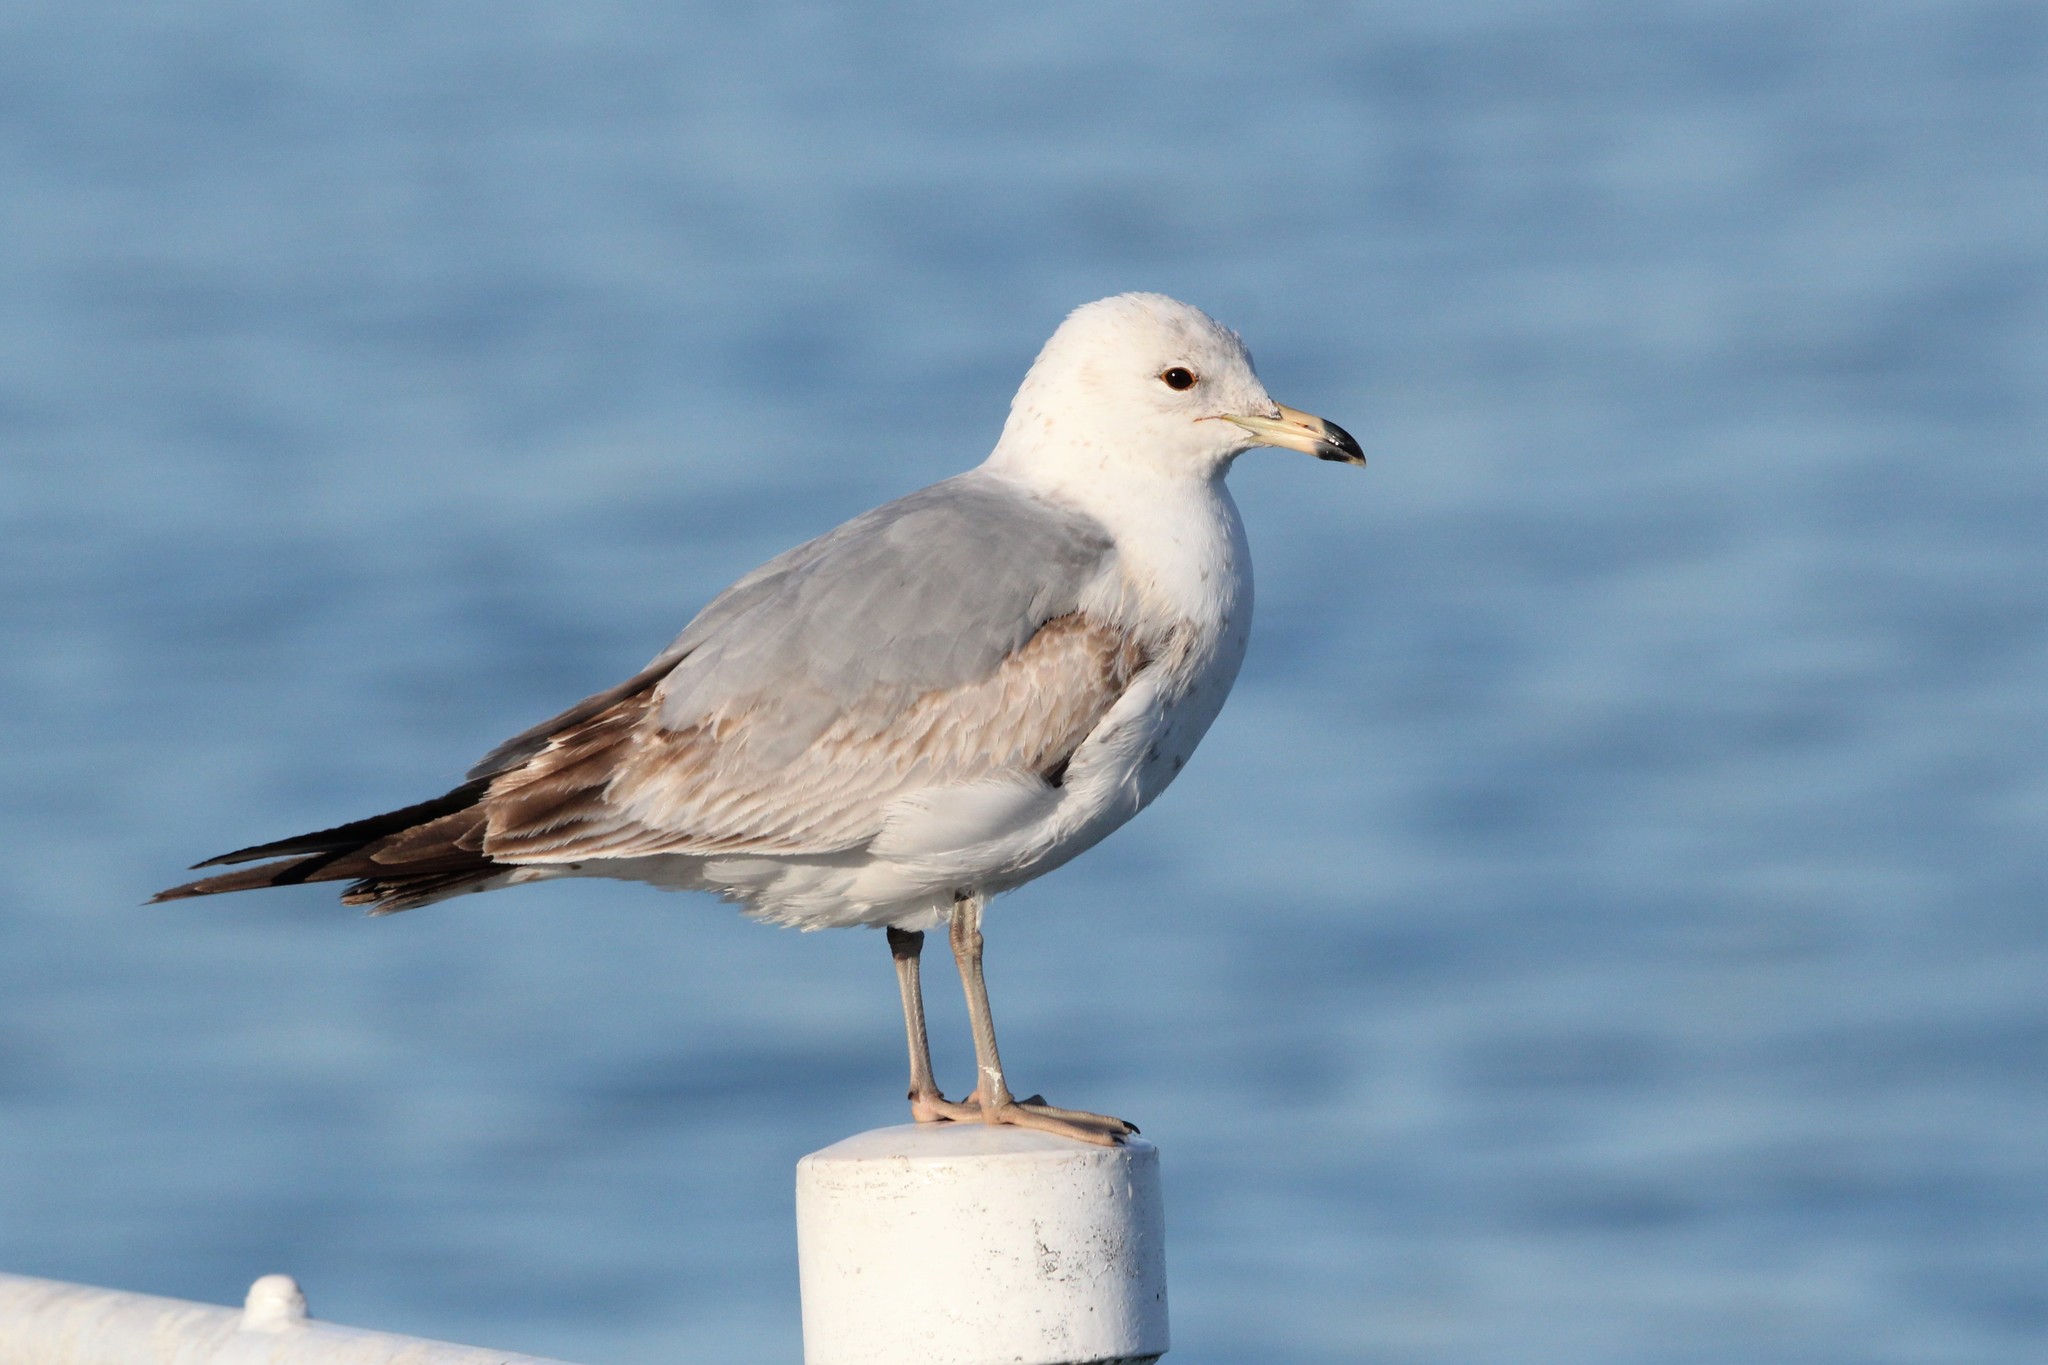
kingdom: Animalia
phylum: Chordata
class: Aves
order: Charadriiformes
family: Laridae
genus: Larus
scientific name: Larus delawarensis
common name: Ring-billed gull
